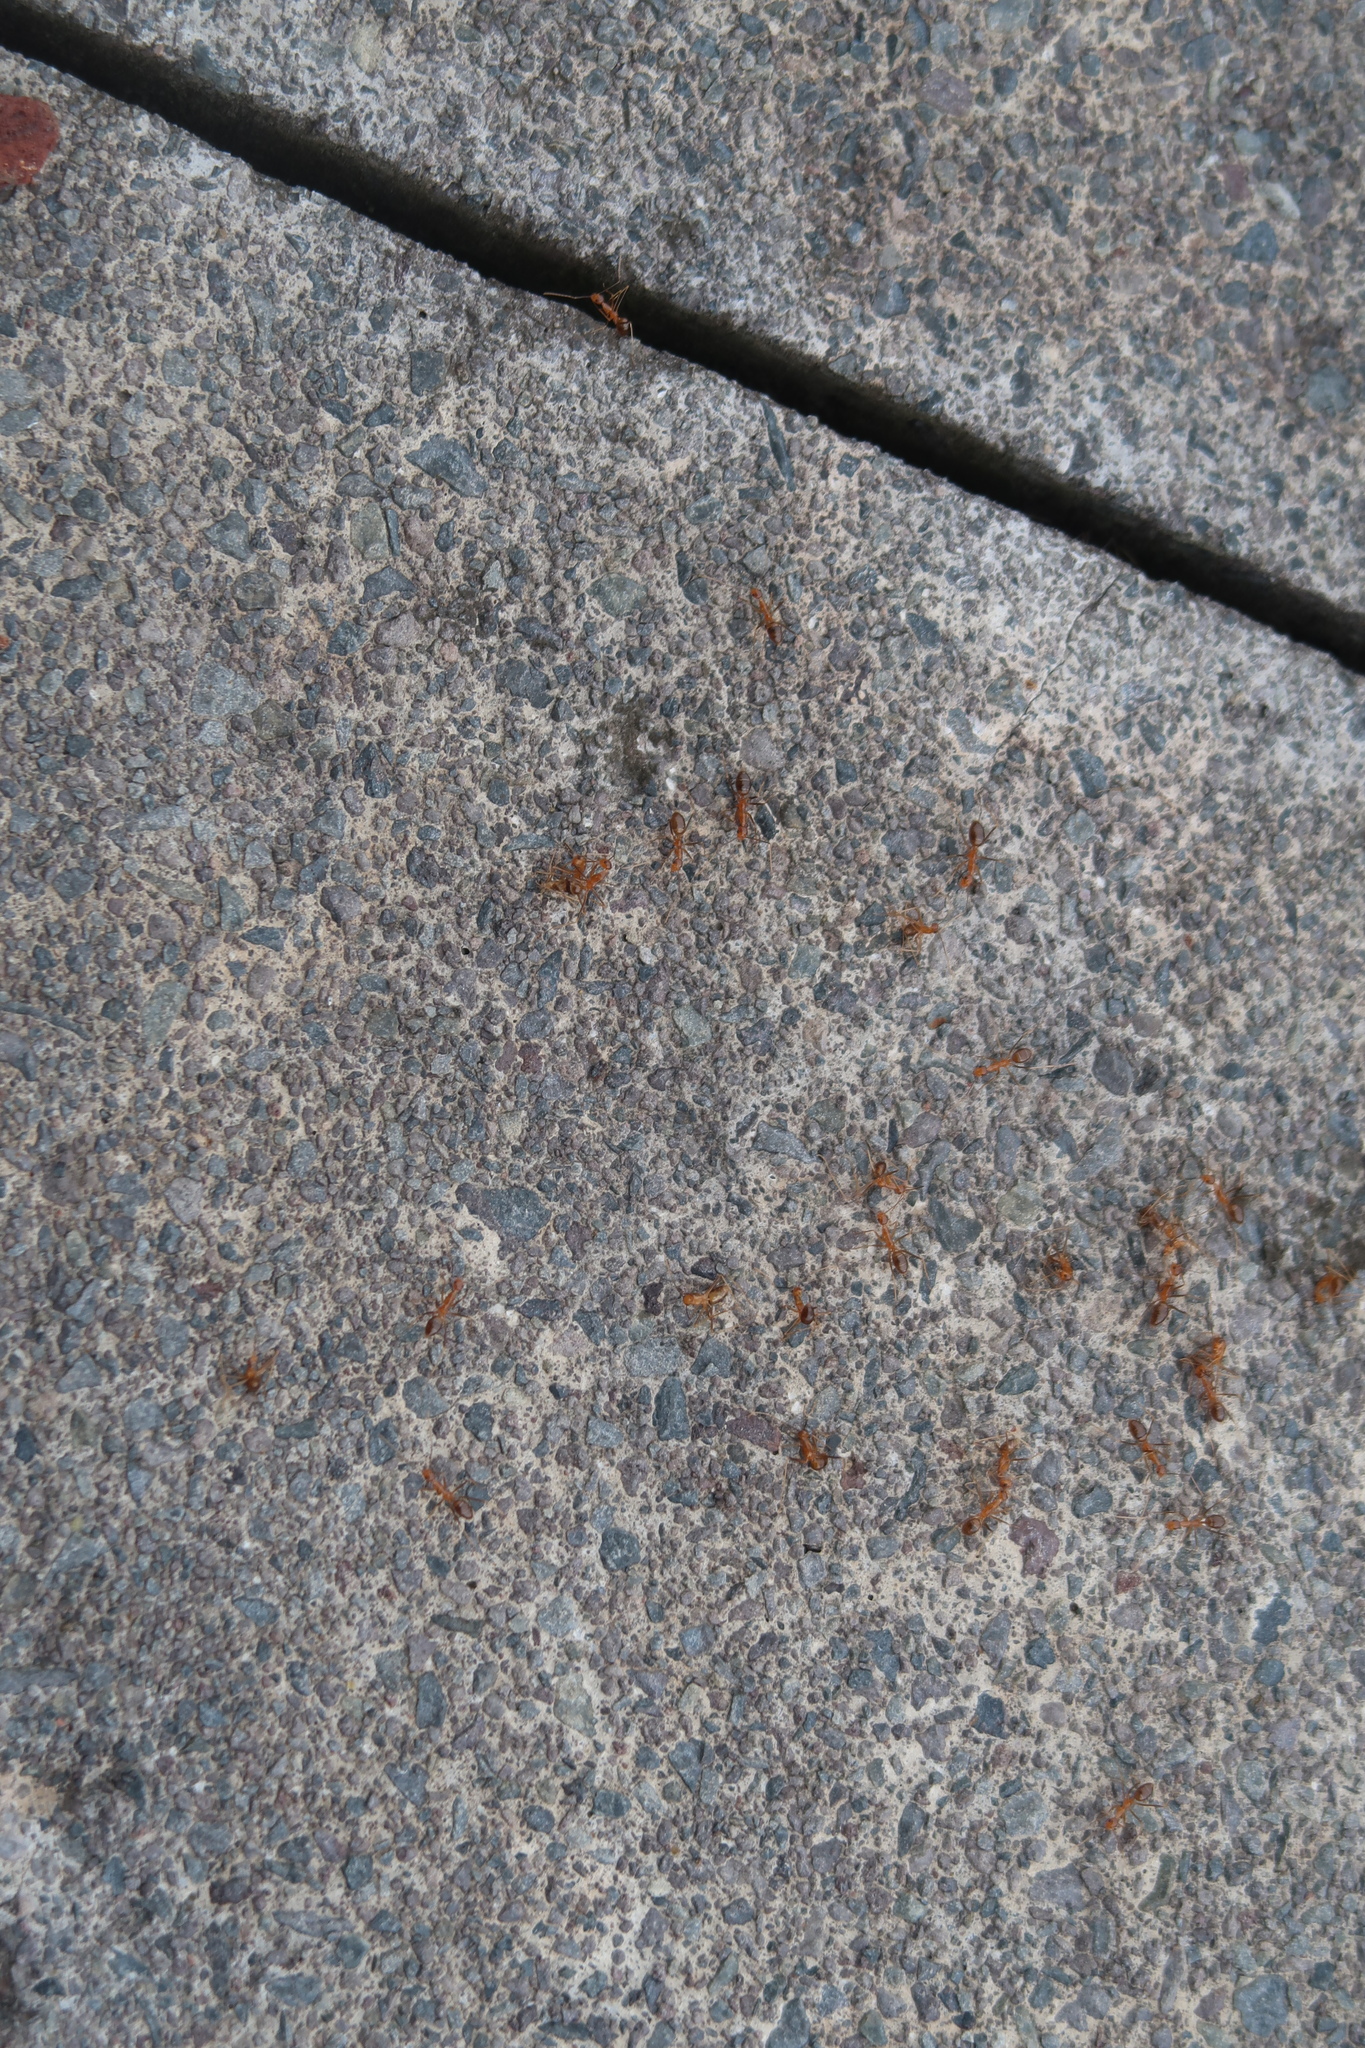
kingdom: Animalia
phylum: Arthropoda
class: Insecta
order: Hymenoptera
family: Formicidae
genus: Anoplolepis
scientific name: Anoplolepis gracilipes
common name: Ant
